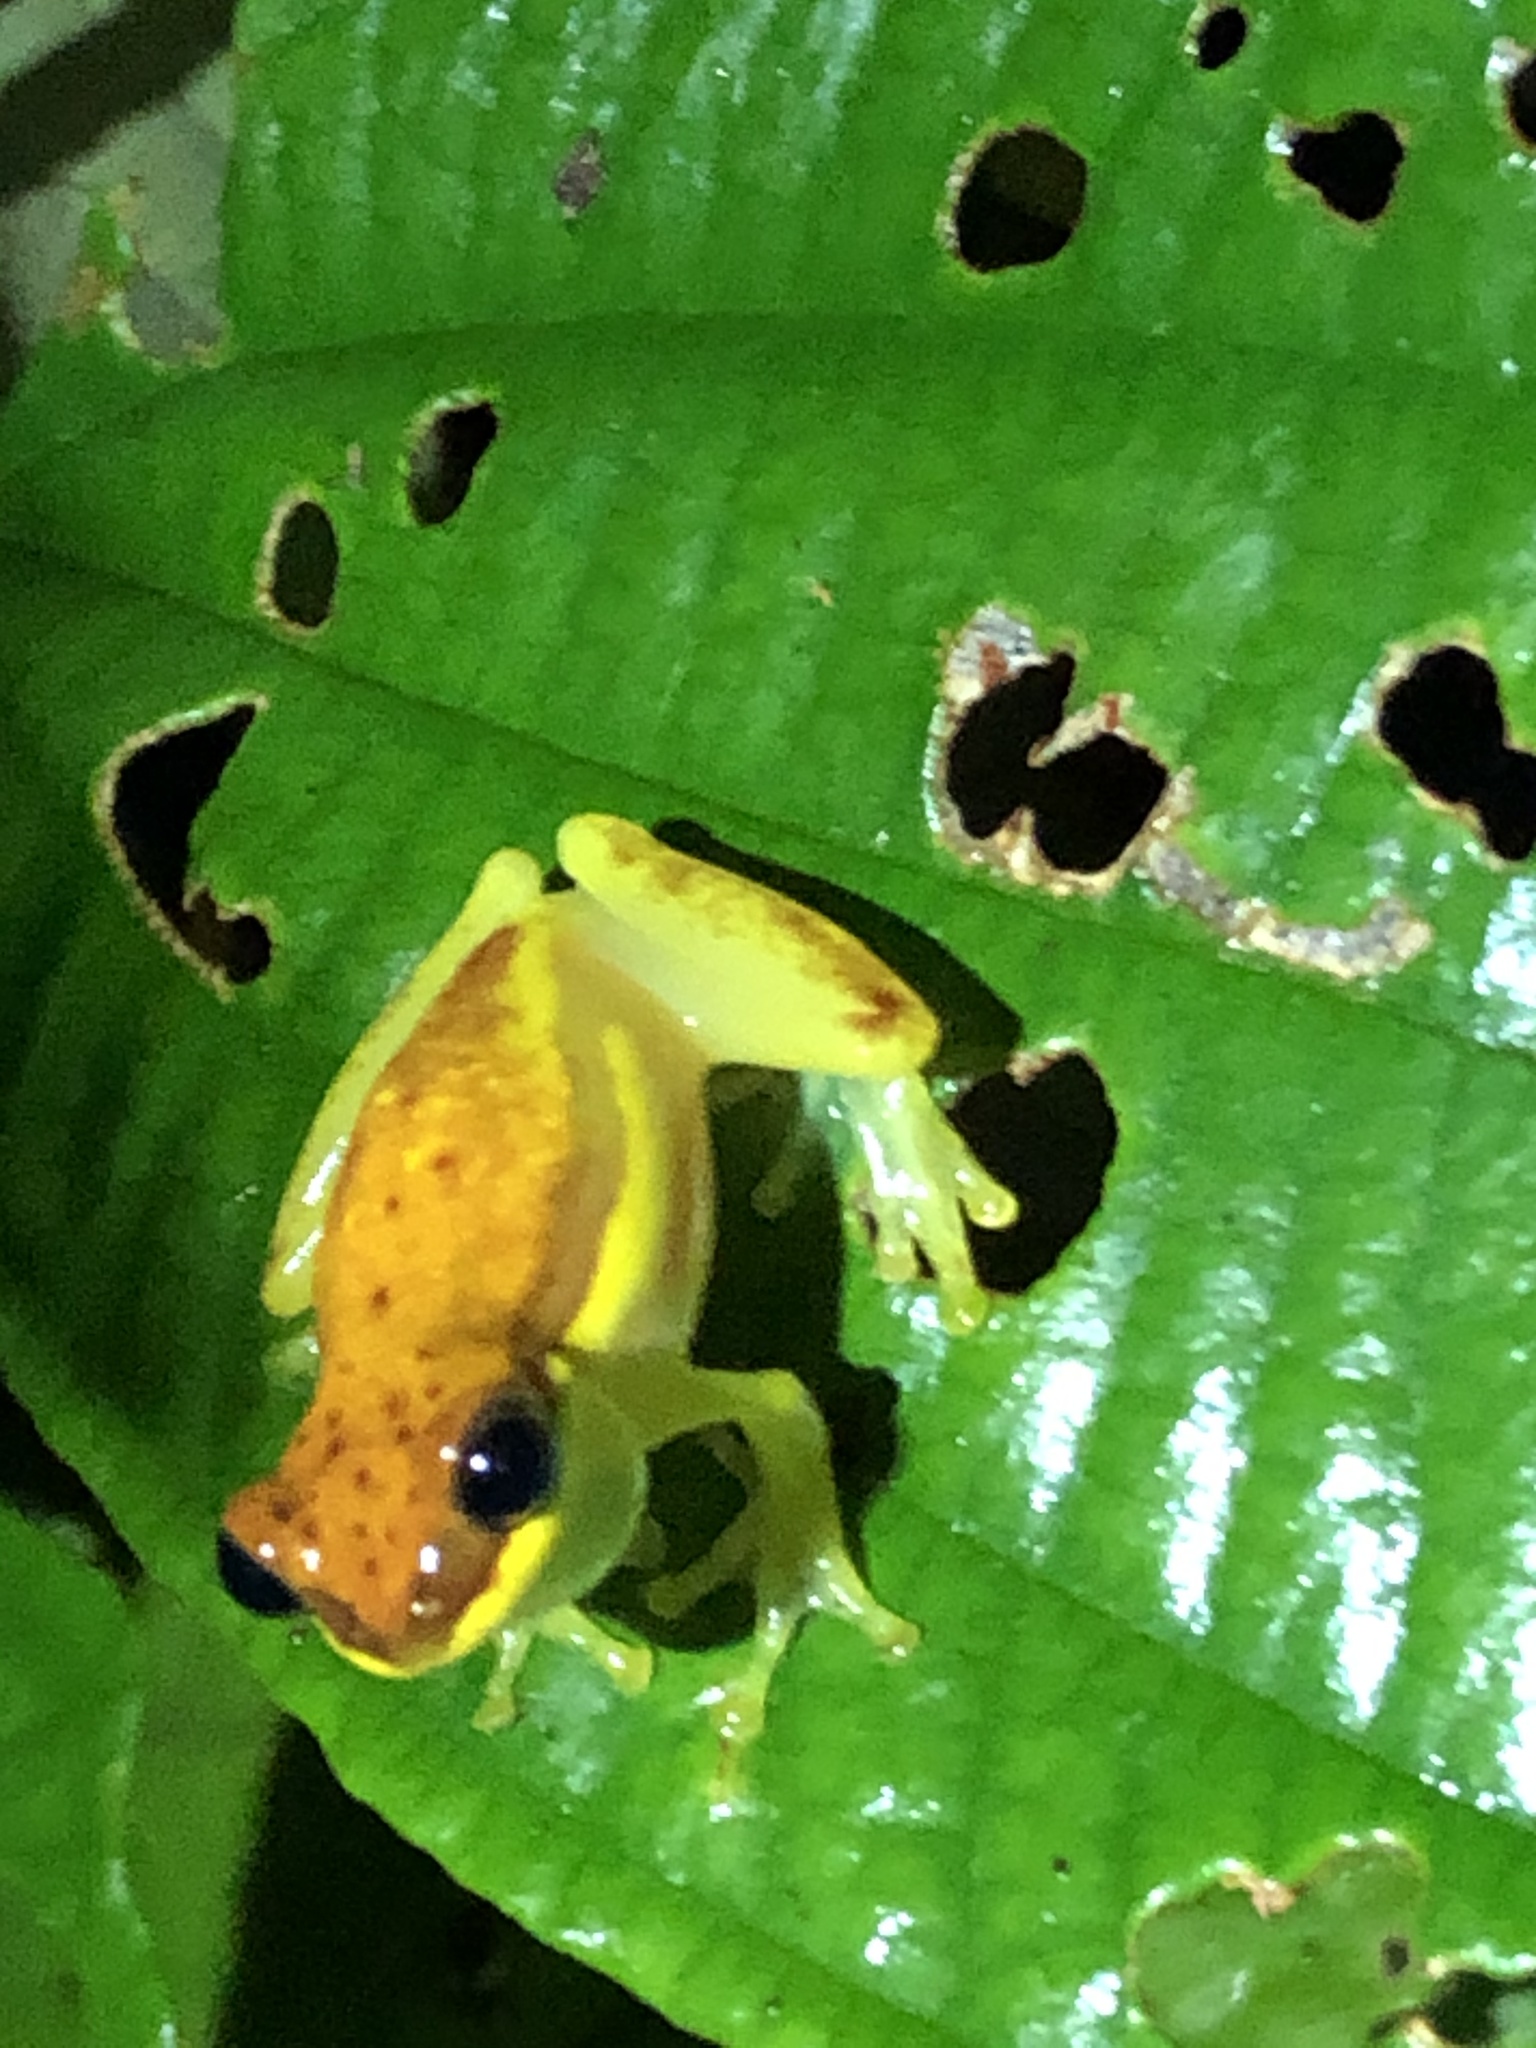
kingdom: Animalia
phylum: Chordata
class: Amphibia
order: Anura
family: Hylidae
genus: Dendropsophus
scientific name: Dendropsophus rhodopeplus
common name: Red-skirted treefrog
